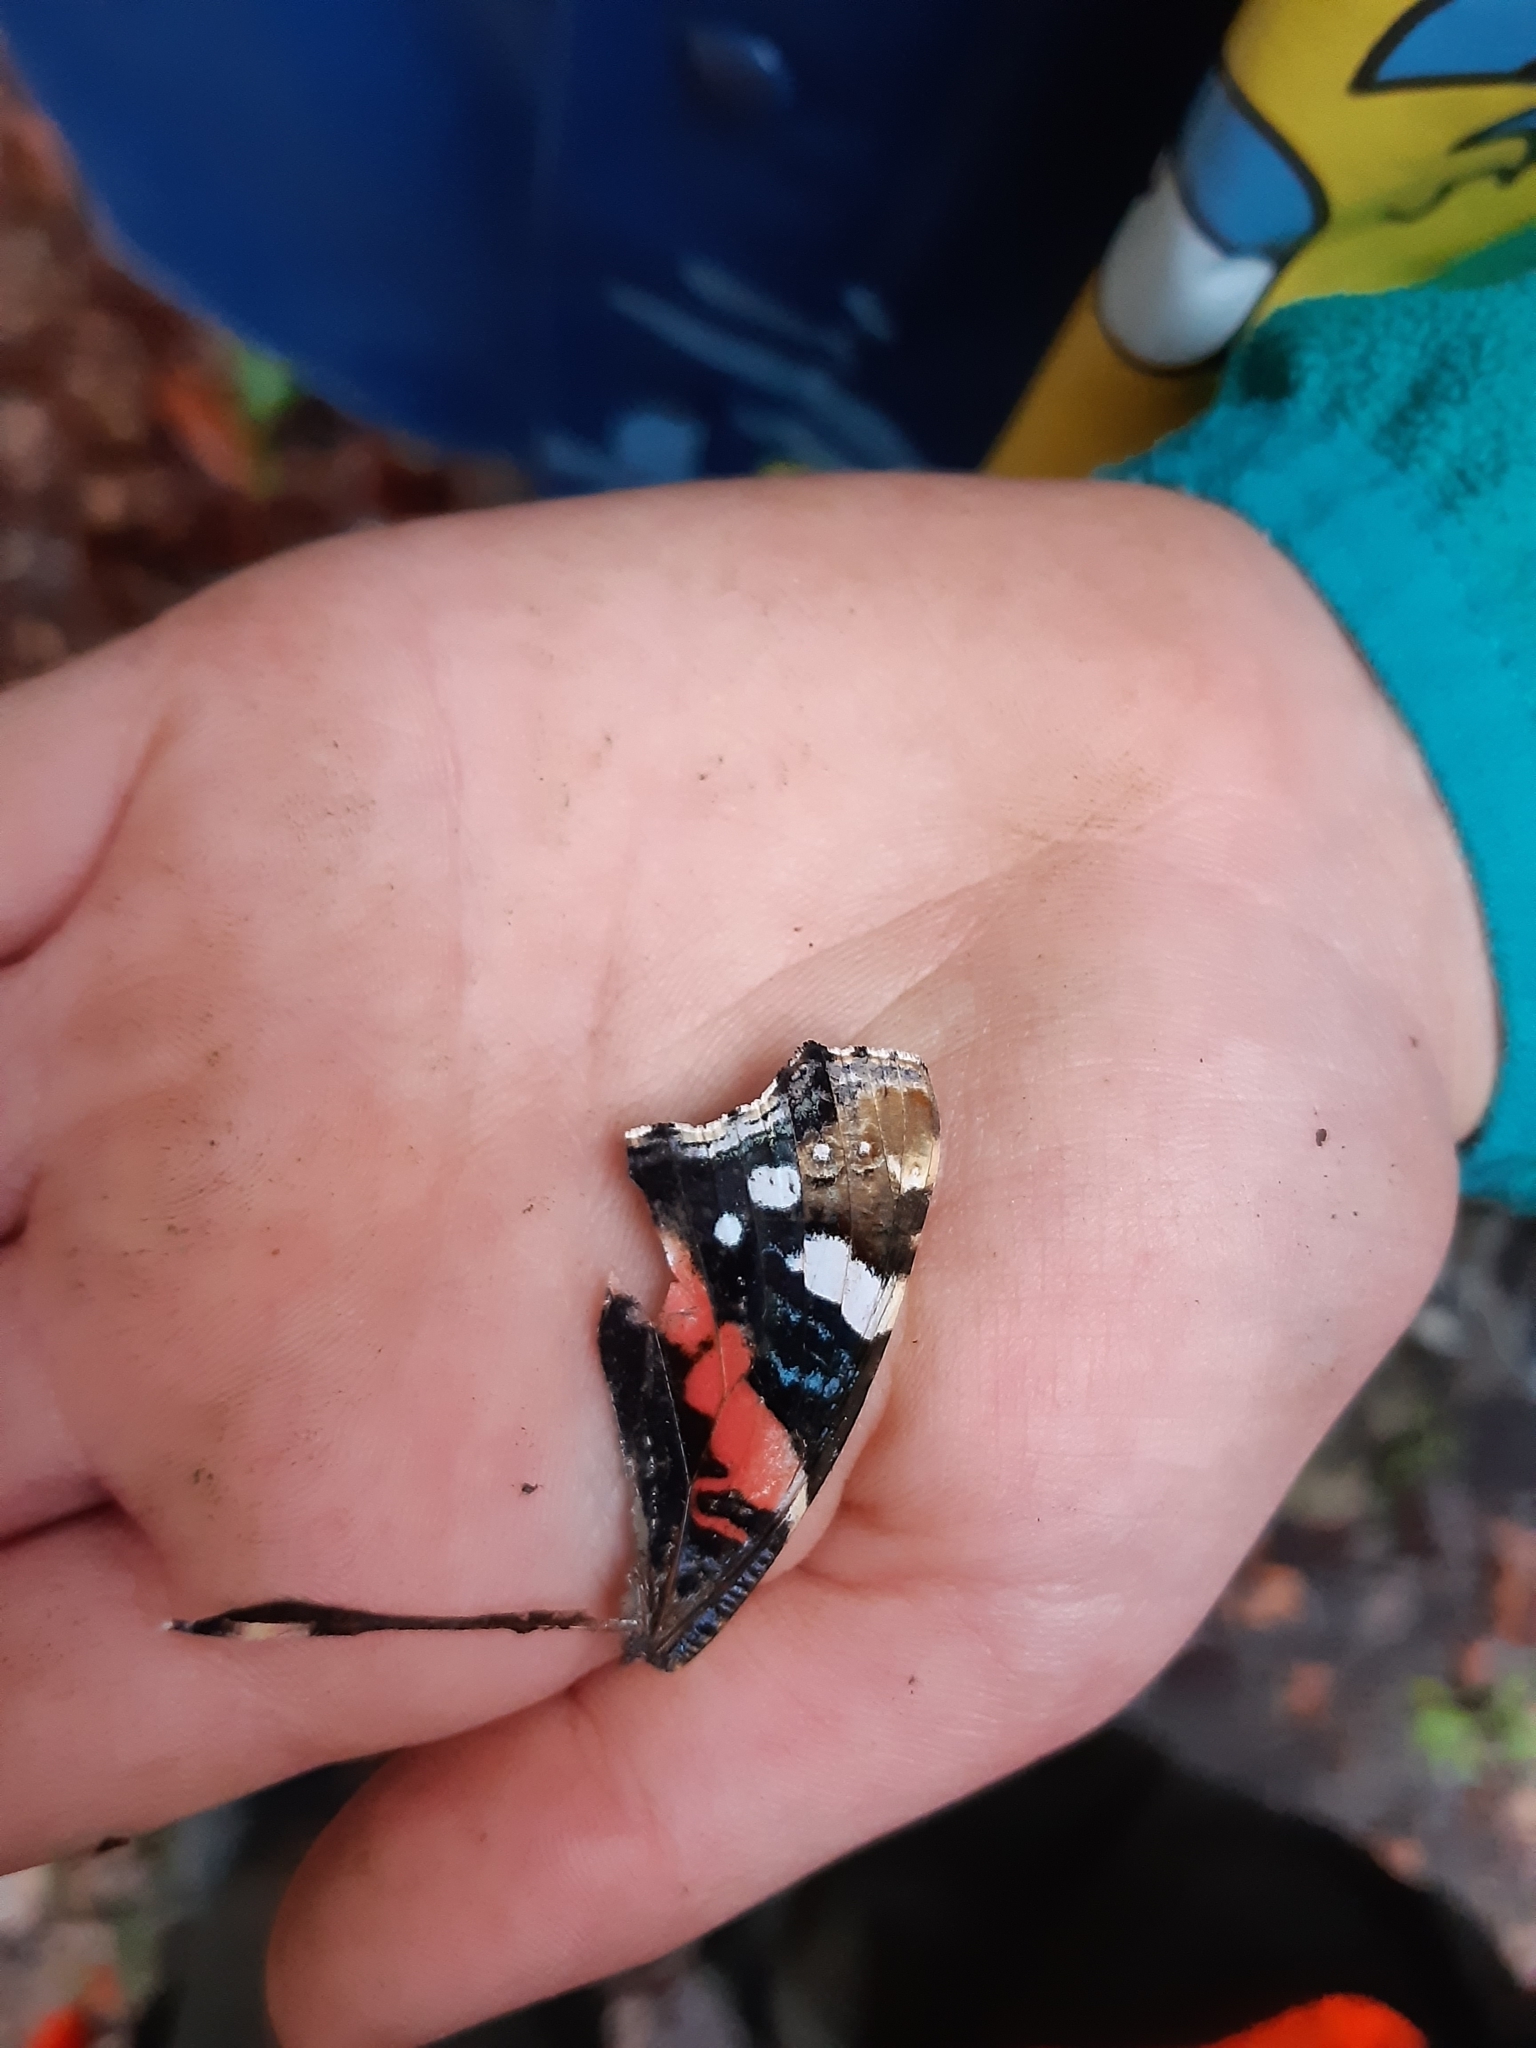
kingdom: Animalia
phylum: Arthropoda
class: Insecta
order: Lepidoptera
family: Nymphalidae
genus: Vanessa
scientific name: Vanessa atalanta
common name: Red admiral
